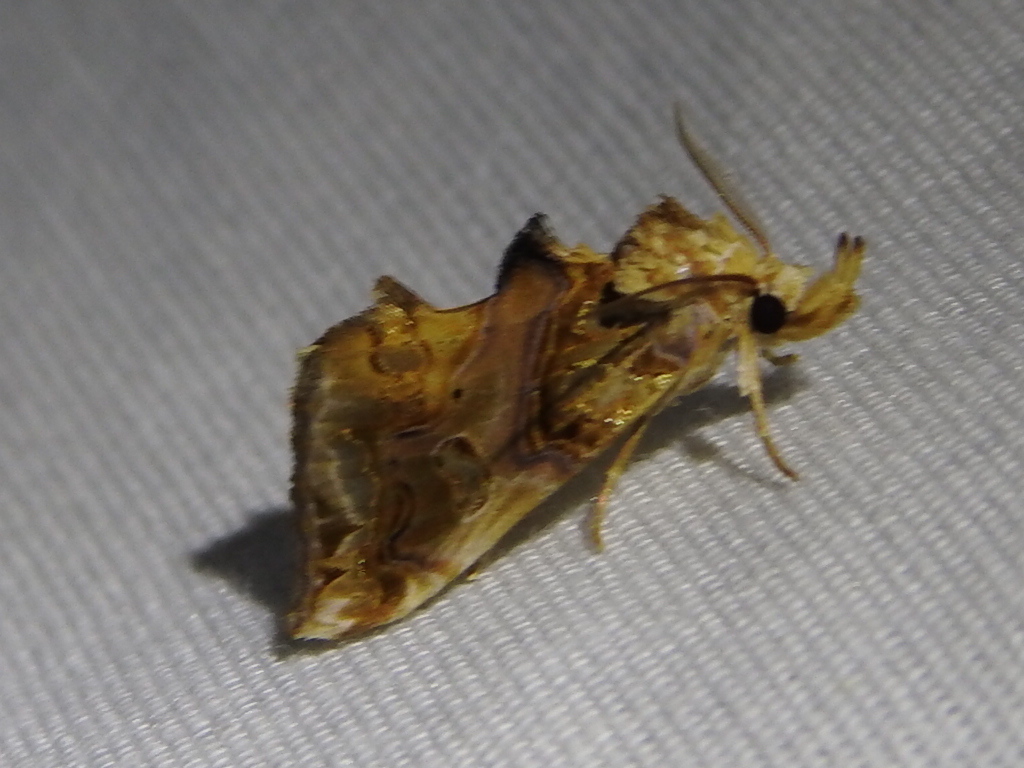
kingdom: Animalia
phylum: Arthropoda
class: Insecta
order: Lepidoptera
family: Erebidae
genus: Plusiodonta
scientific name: Plusiodonta compressipalpis
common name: Moonseed moth
